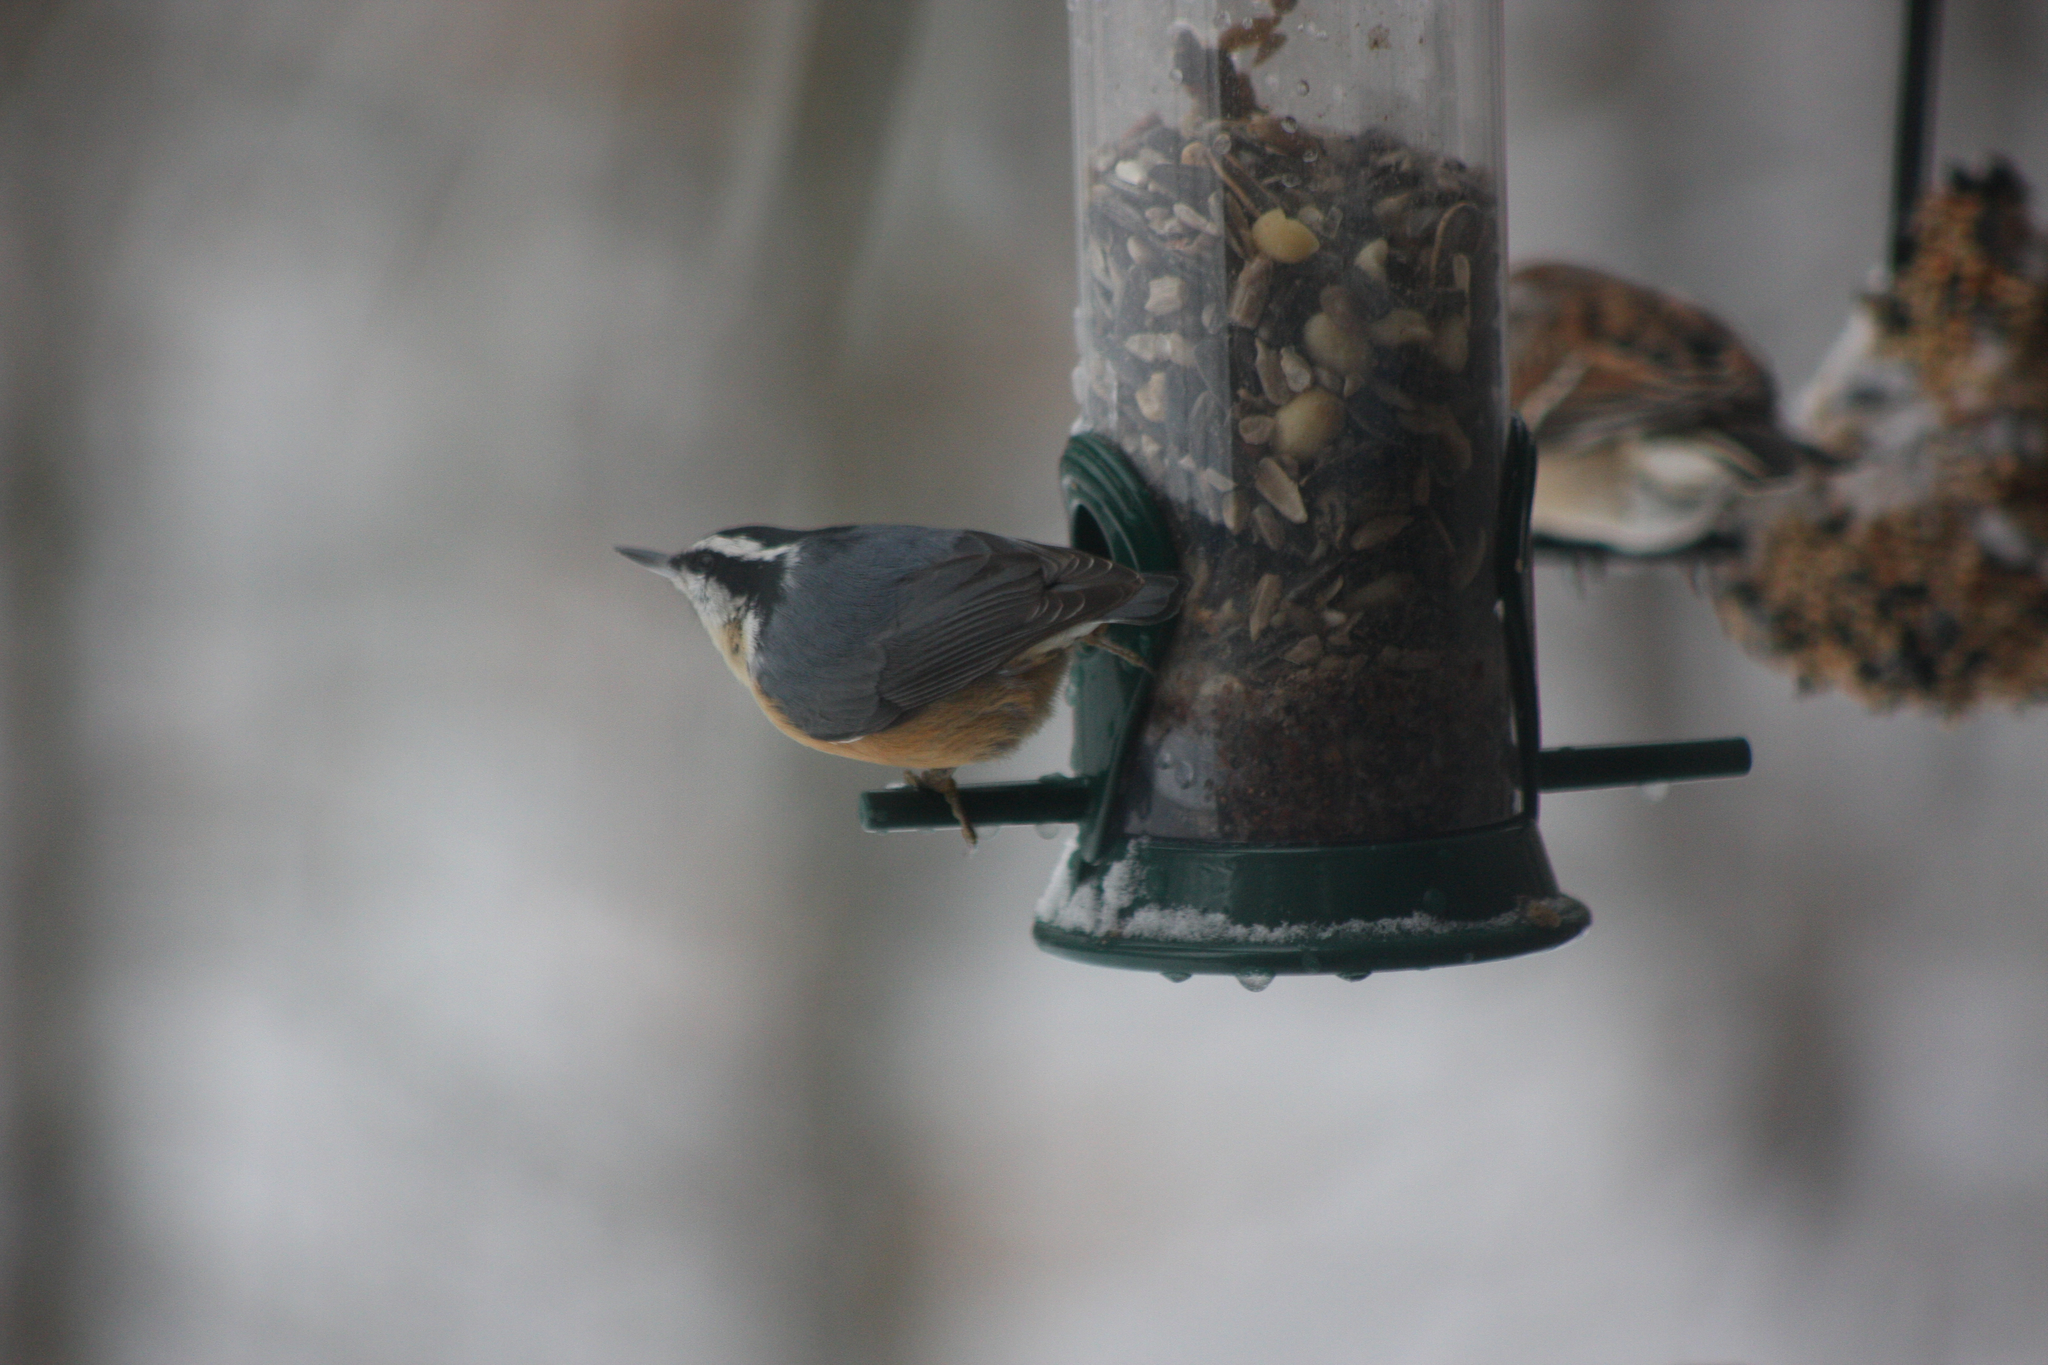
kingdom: Animalia
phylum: Chordata
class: Aves
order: Passeriformes
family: Sittidae
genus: Sitta
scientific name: Sitta canadensis
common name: Red-breasted nuthatch
